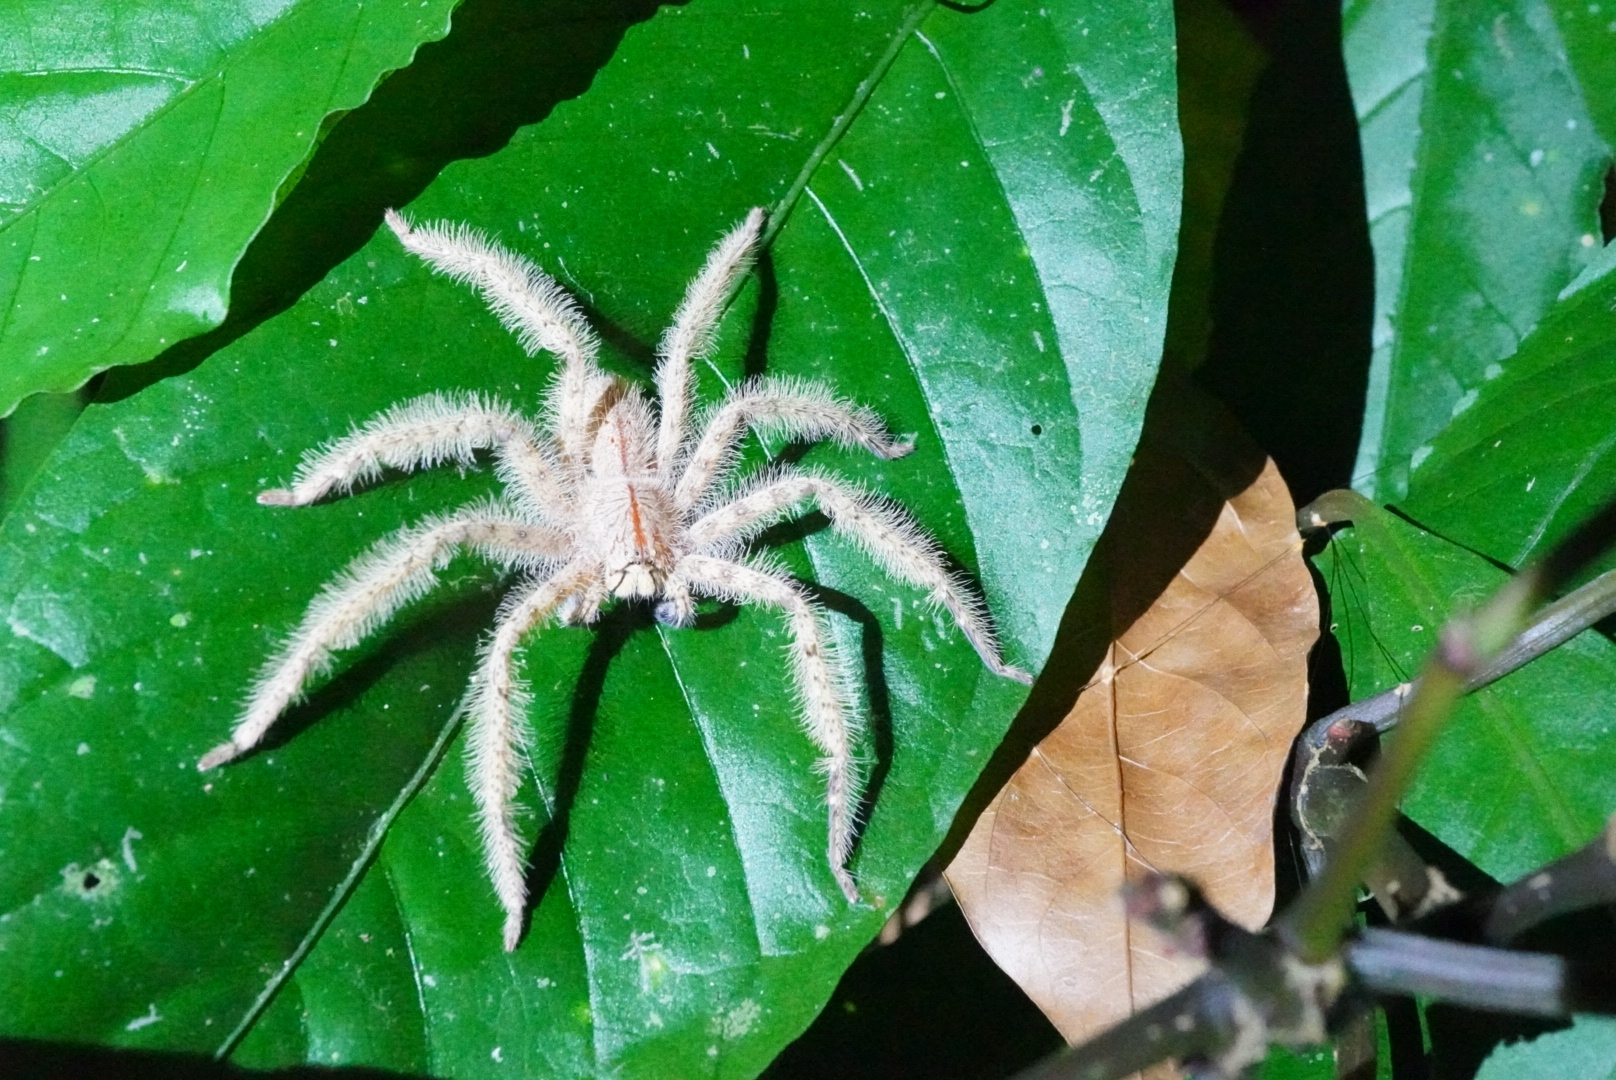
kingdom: Animalia
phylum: Arthropoda
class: Arachnida
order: Araneae
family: Sparassidae
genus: Heteropoda
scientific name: Heteropoda davidbowie
